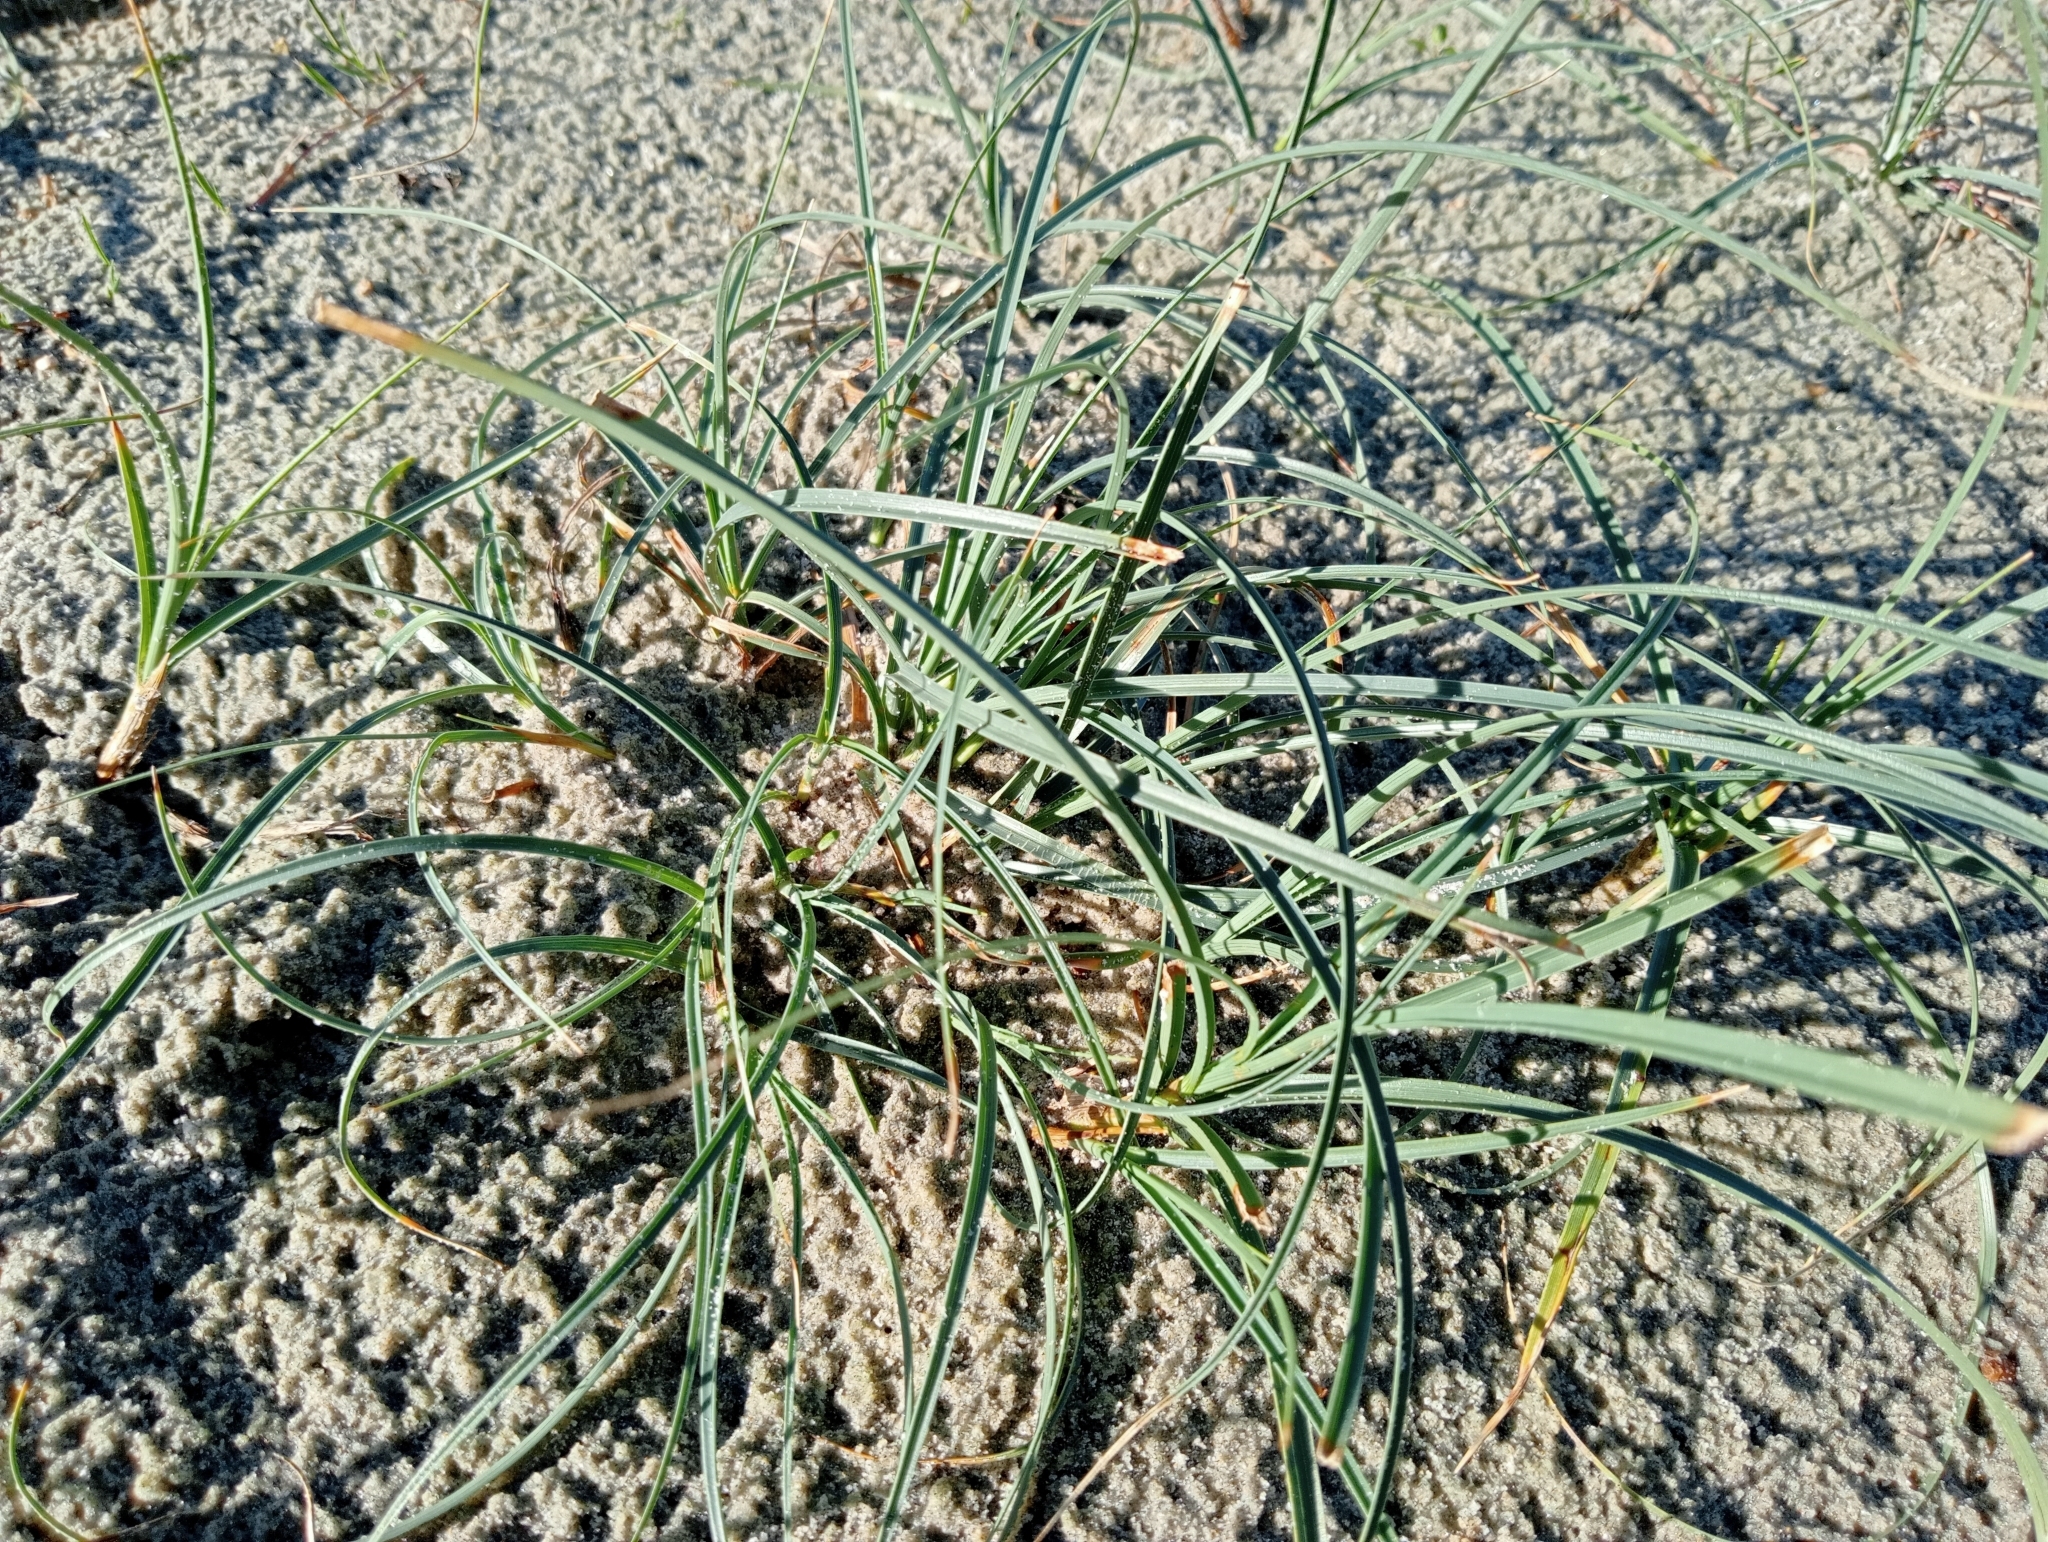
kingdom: Plantae
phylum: Tracheophyta
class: Liliopsida
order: Poales
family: Cyperaceae
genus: Carex
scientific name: Carex pumila
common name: Dwarf sedge
